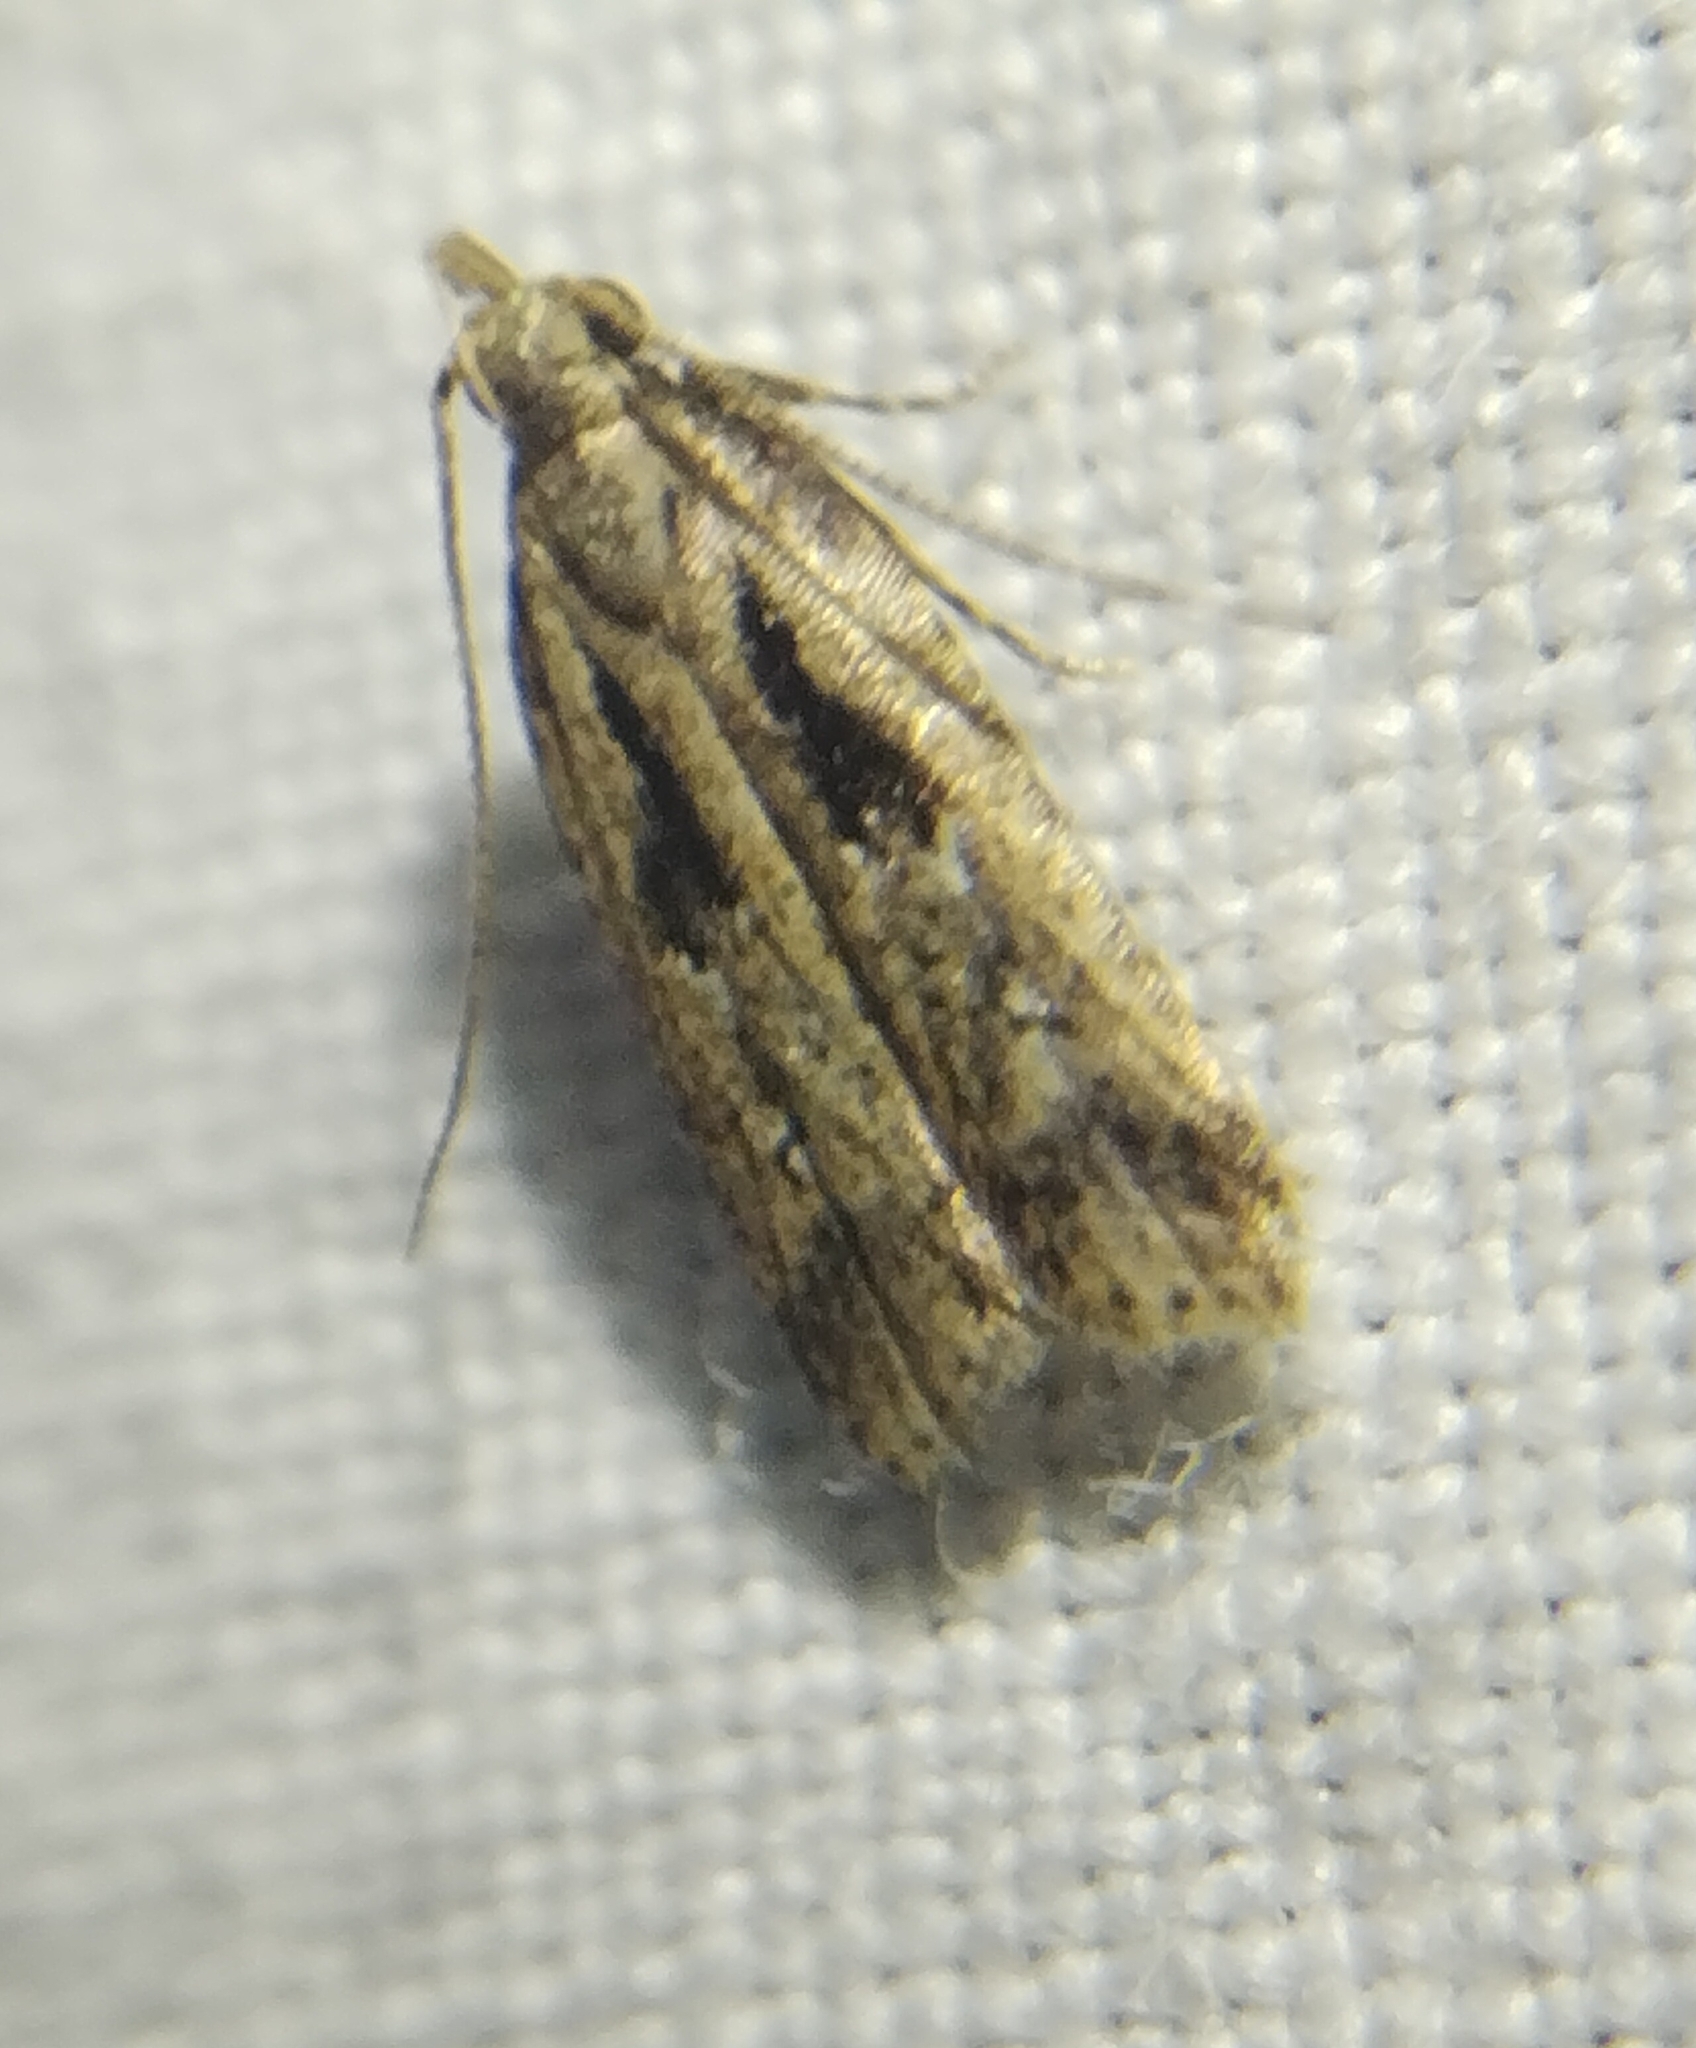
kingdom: Animalia
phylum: Arthropoda
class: Insecta
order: Lepidoptera
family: Gelechiidae
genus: Dichomeris
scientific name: Dichomeris aglaia
